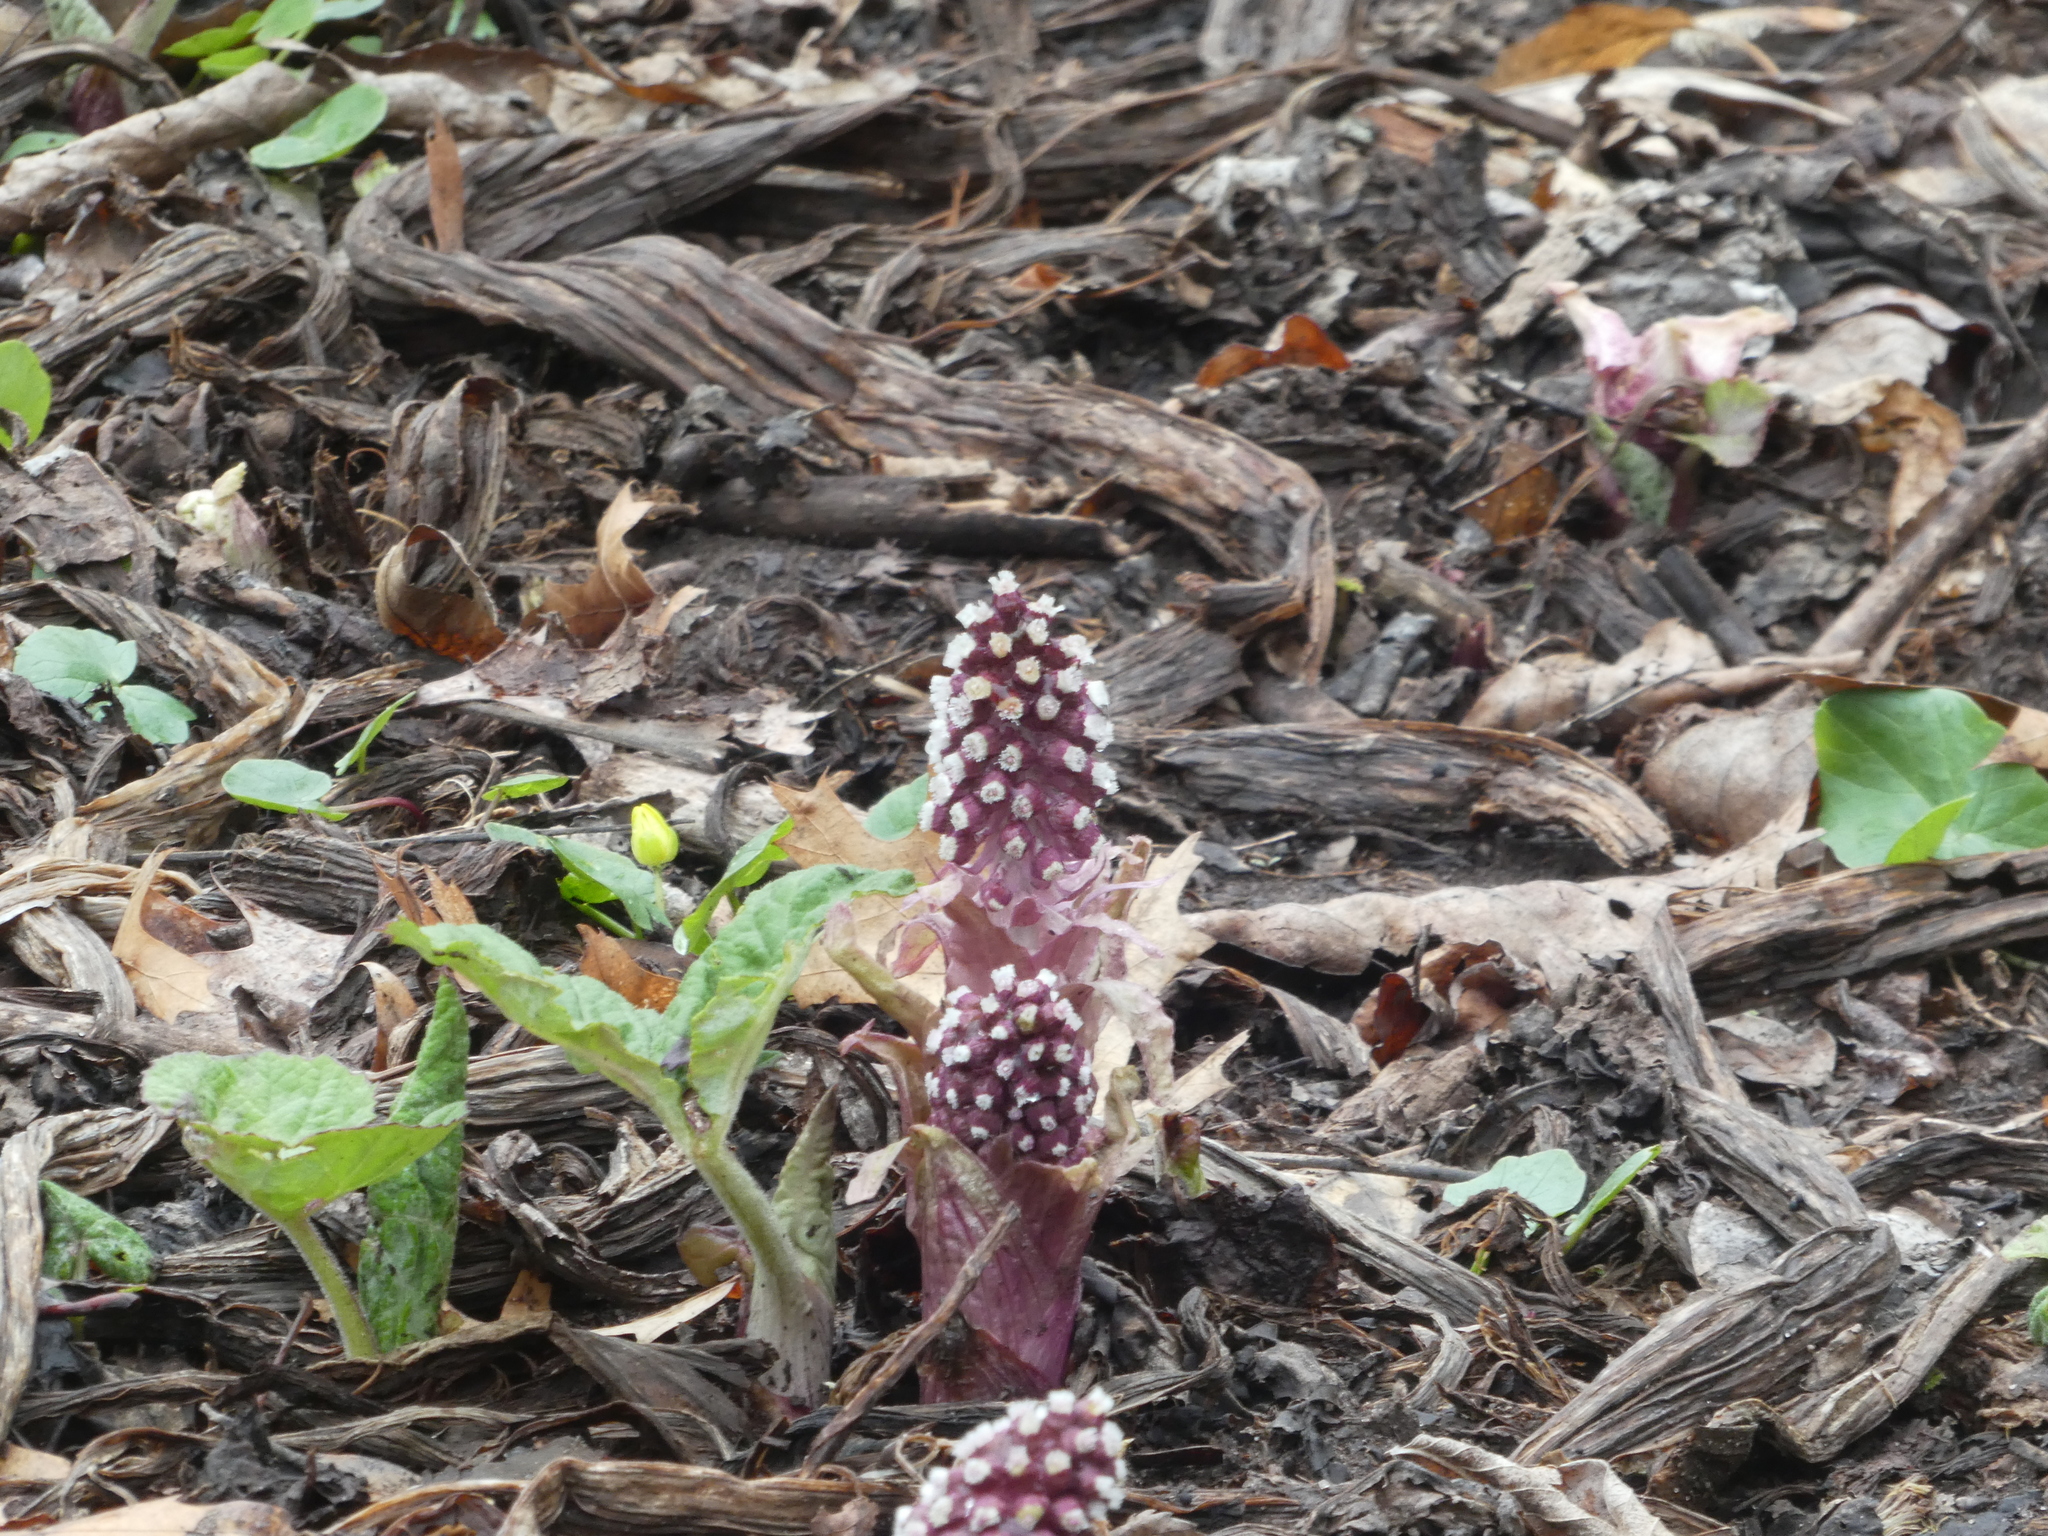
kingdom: Plantae
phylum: Tracheophyta
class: Magnoliopsida
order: Asterales
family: Asteraceae
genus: Petasites
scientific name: Petasites hybridus
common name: Butterbur
